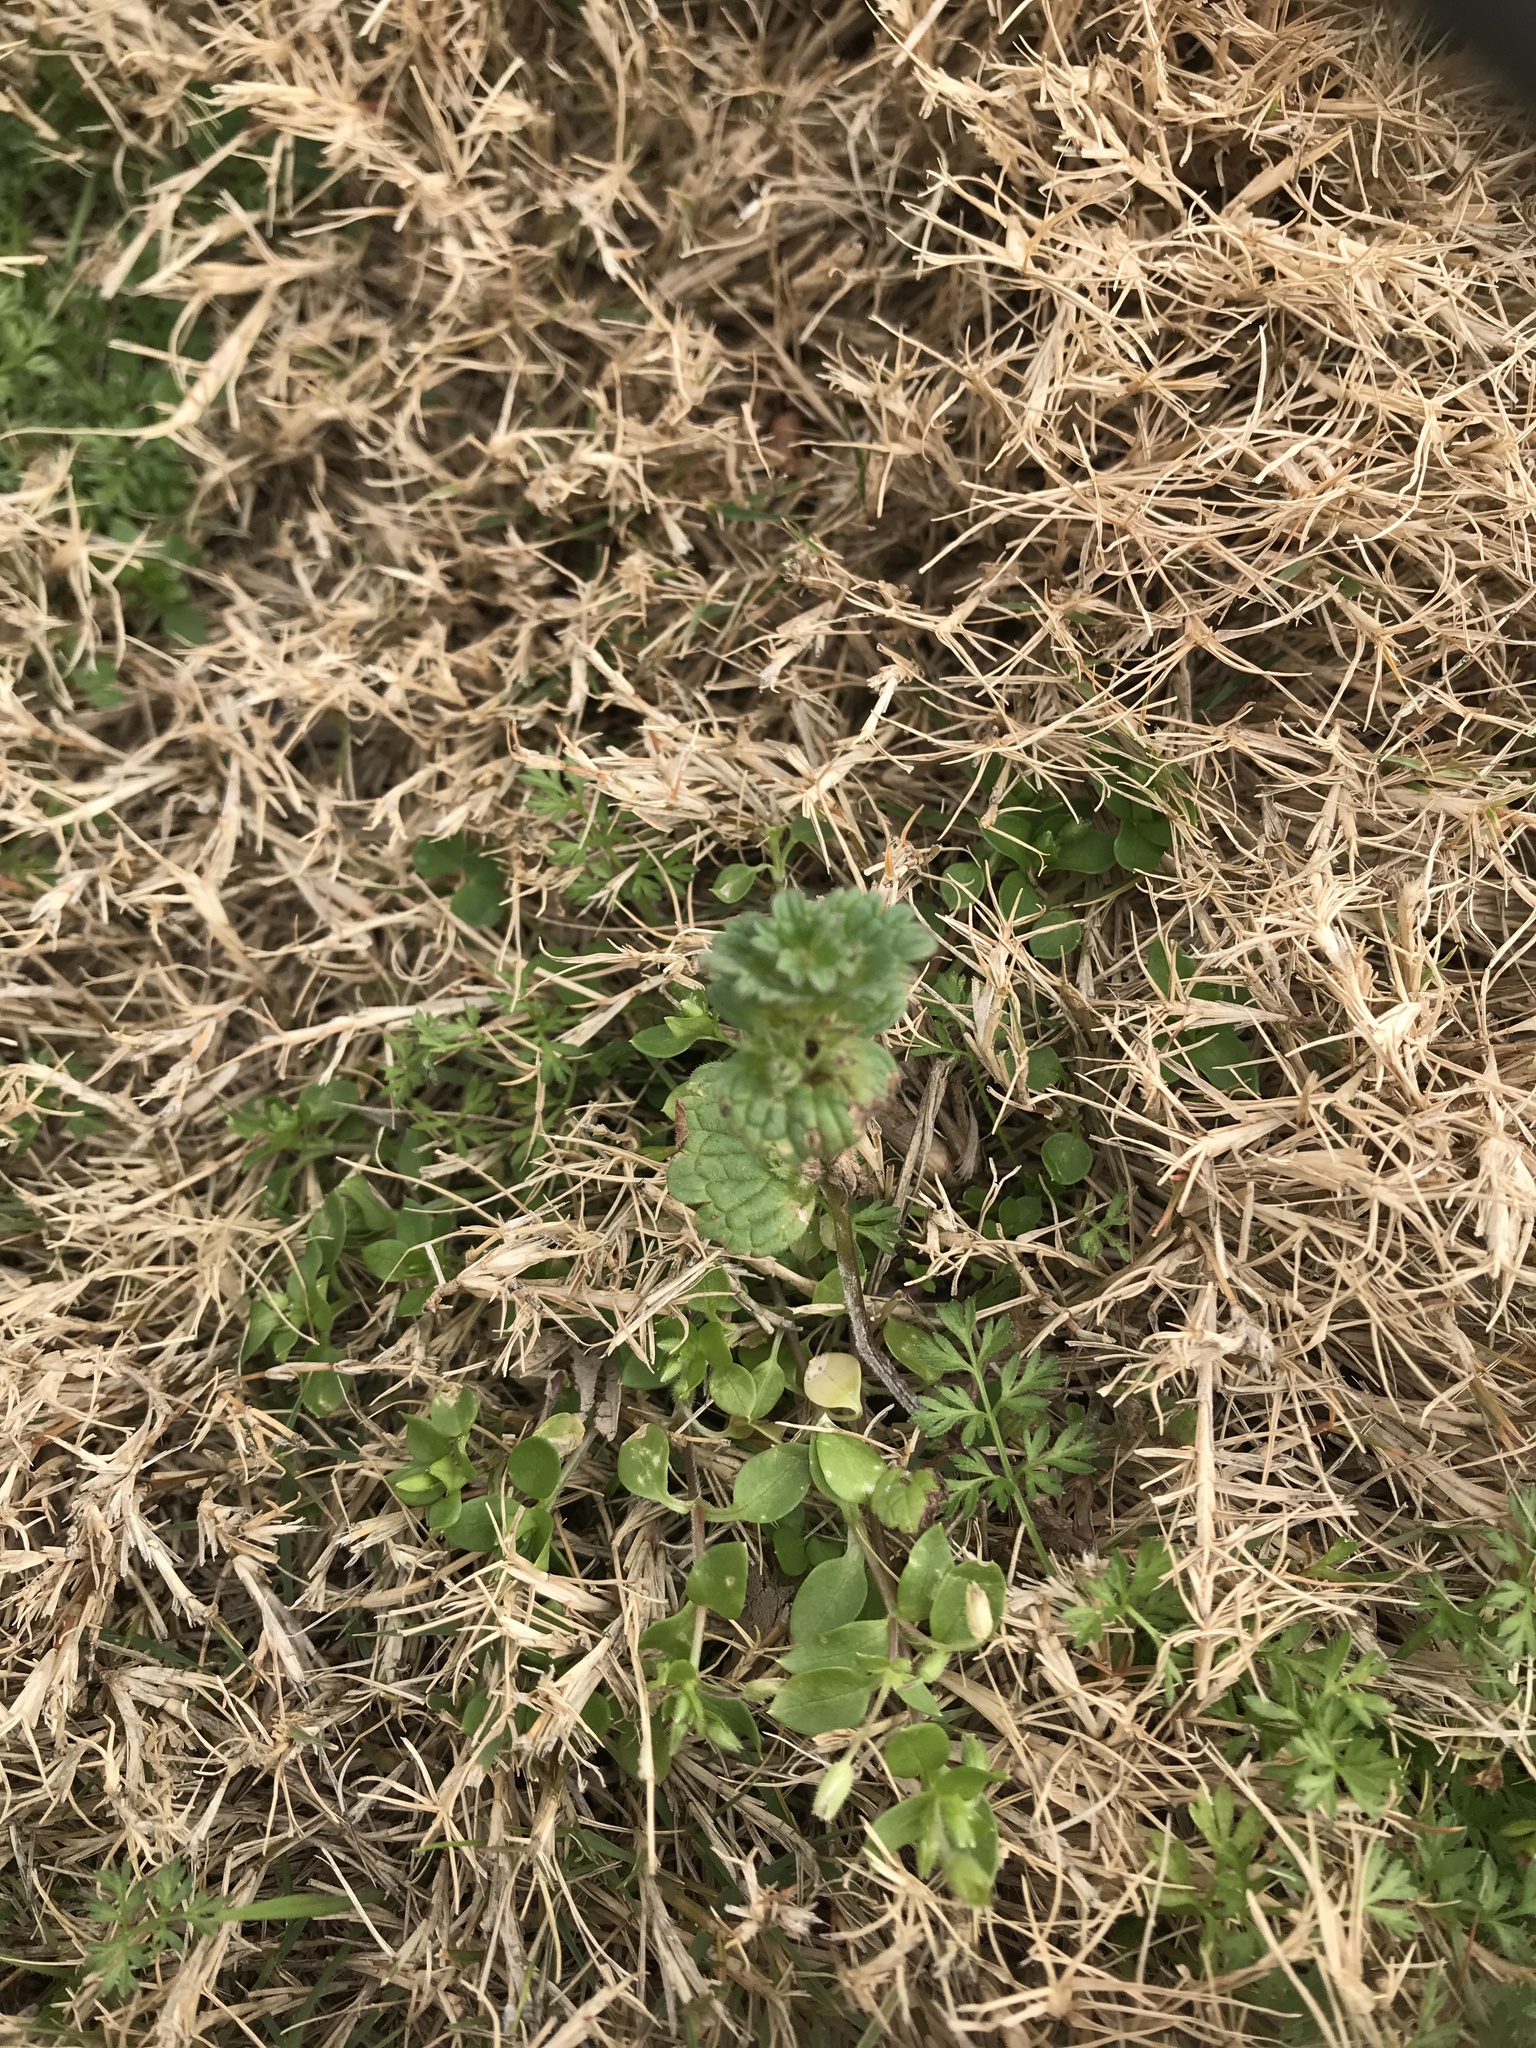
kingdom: Plantae
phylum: Tracheophyta
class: Magnoliopsida
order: Lamiales
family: Lamiaceae
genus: Lamium
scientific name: Lamium amplexicaule
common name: Henbit dead-nettle
